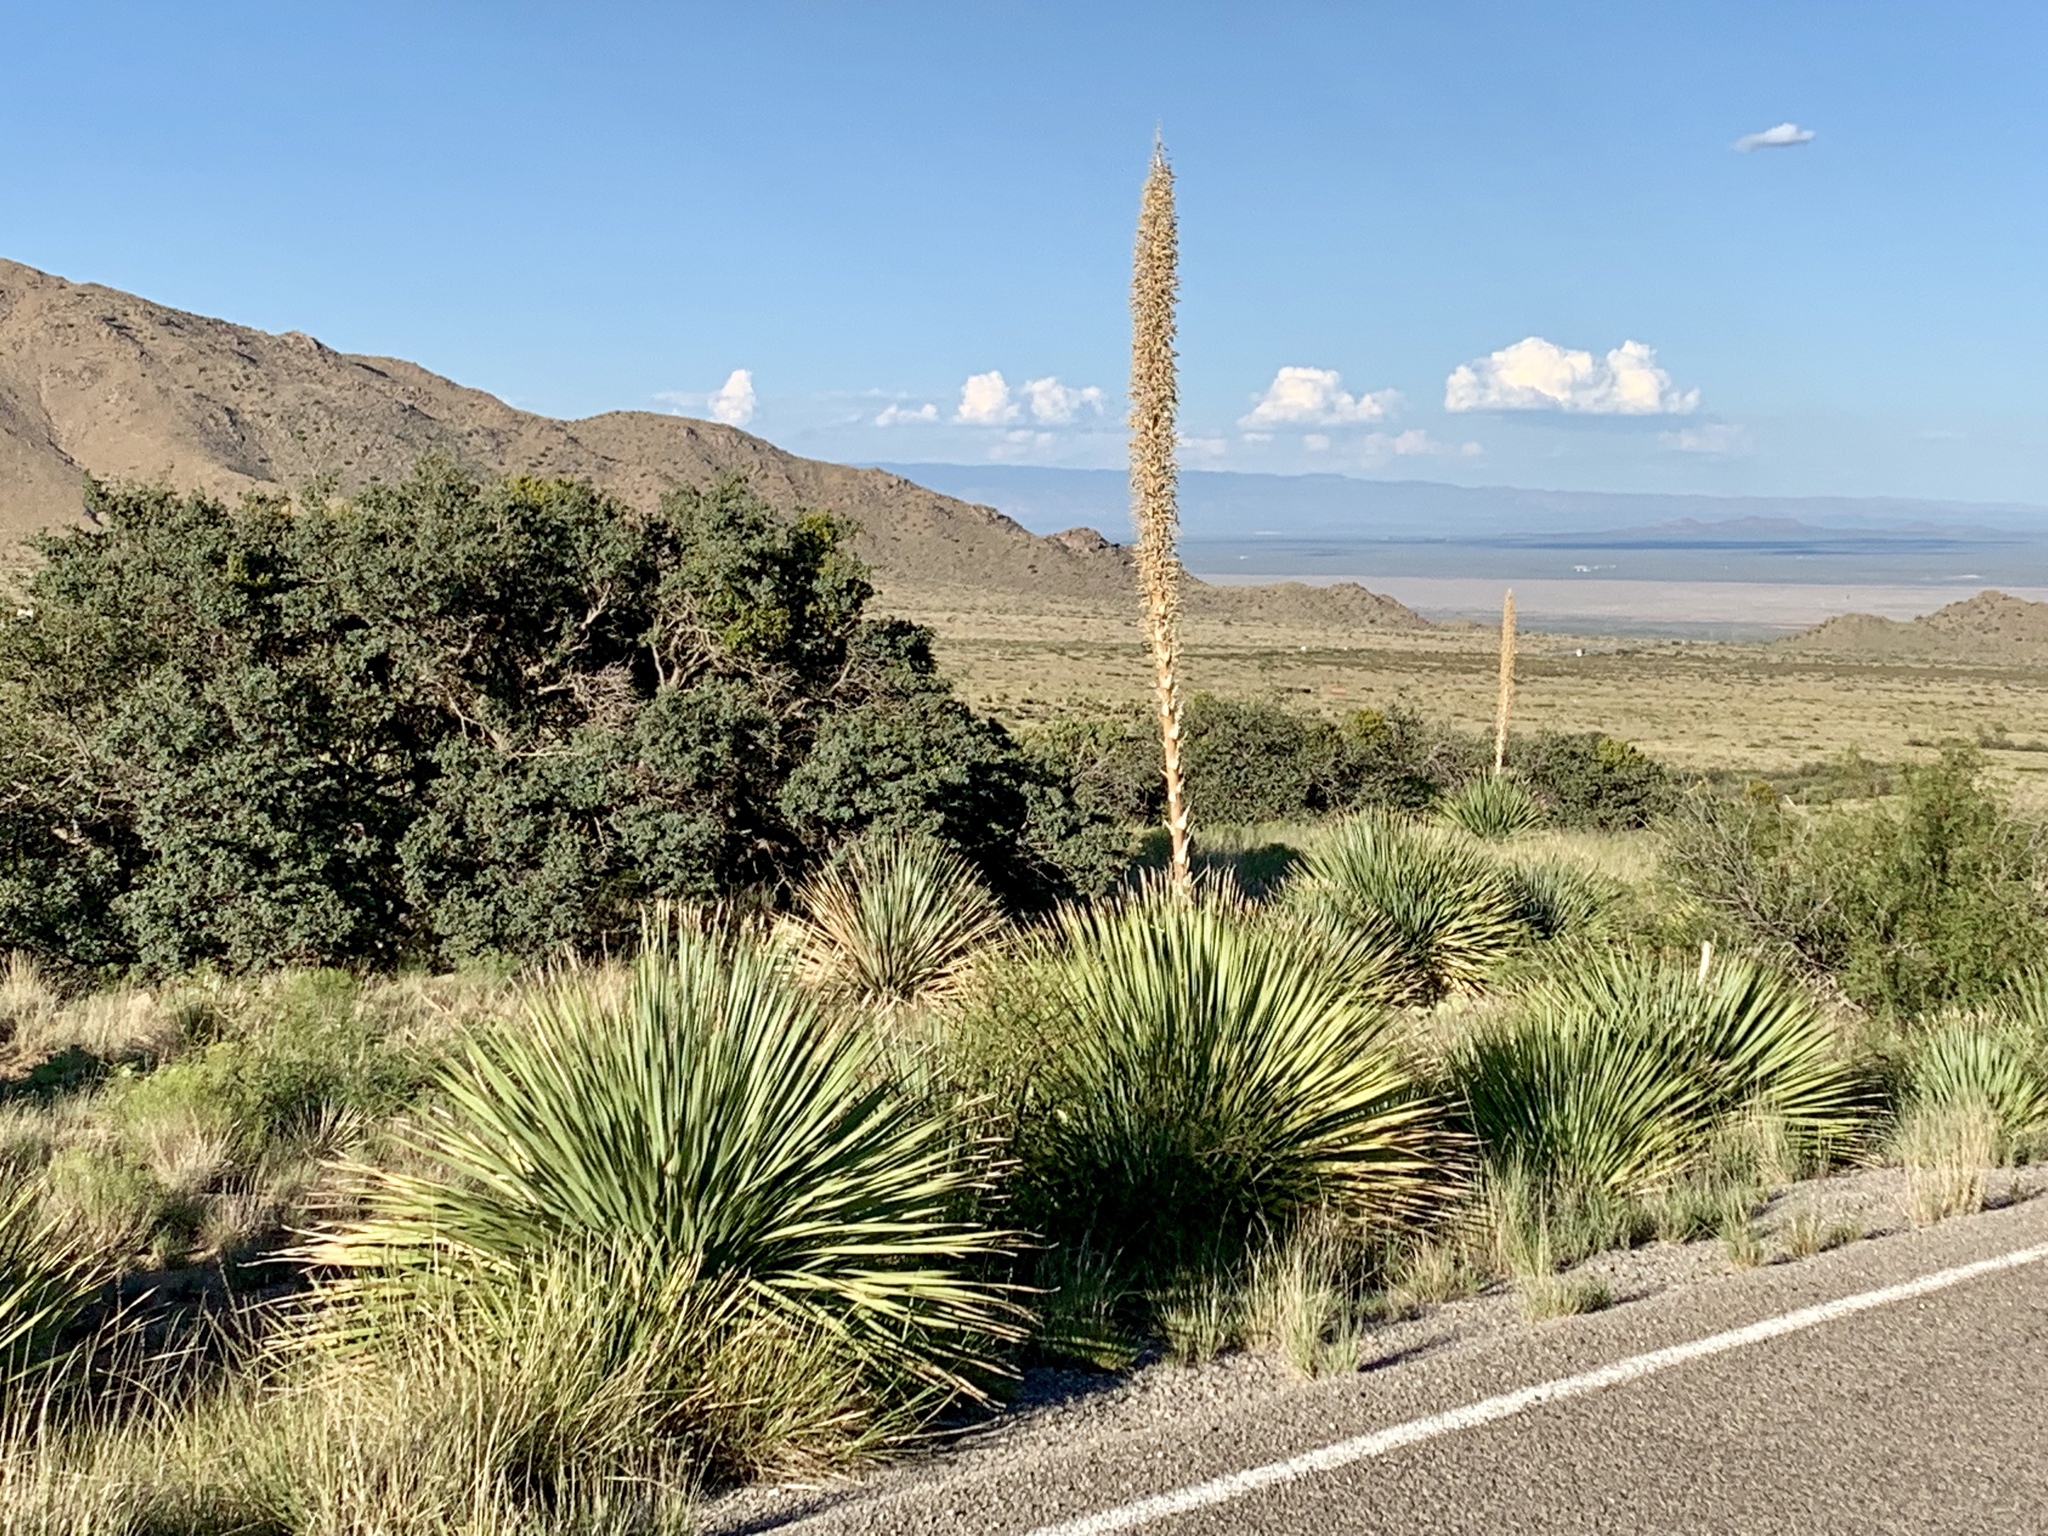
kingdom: Plantae
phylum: Tracheophyta
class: Liliopsida
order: Asparagales
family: Asparagaceae
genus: Dasylirion
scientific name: Dasylirion wheeleri
